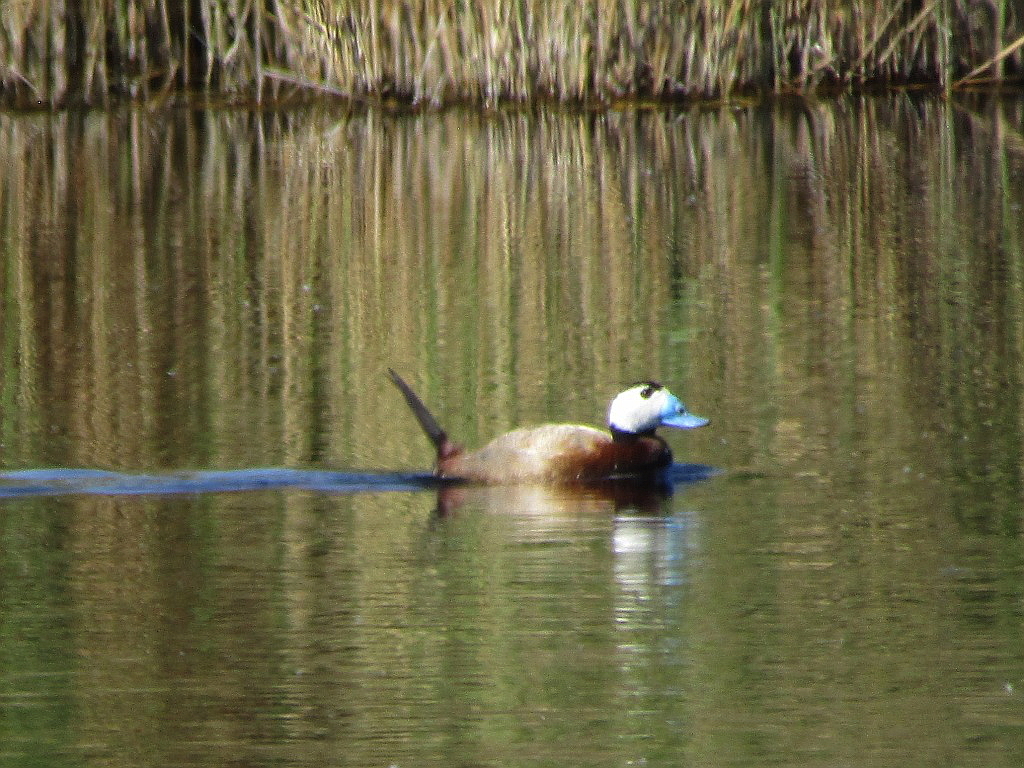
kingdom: Animalia
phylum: Chordata
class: Aves
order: Anseriformes
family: Anatidae
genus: Oxyura
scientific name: Oxyura leucocephala
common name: White-headed duck
